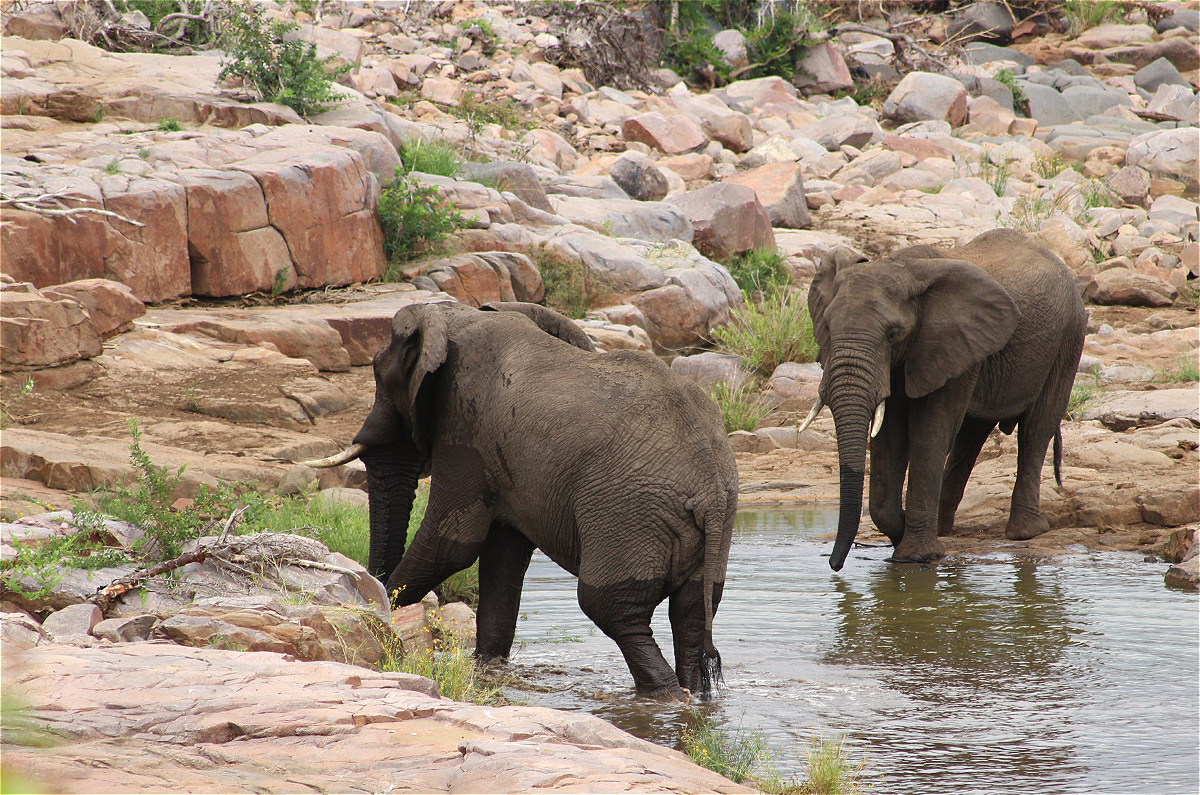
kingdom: Animalia
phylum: Chordata
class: Mammalia
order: Proboscidea
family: Elephantidae
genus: Loxodonta
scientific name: Loxodonta africana
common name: African elephant
